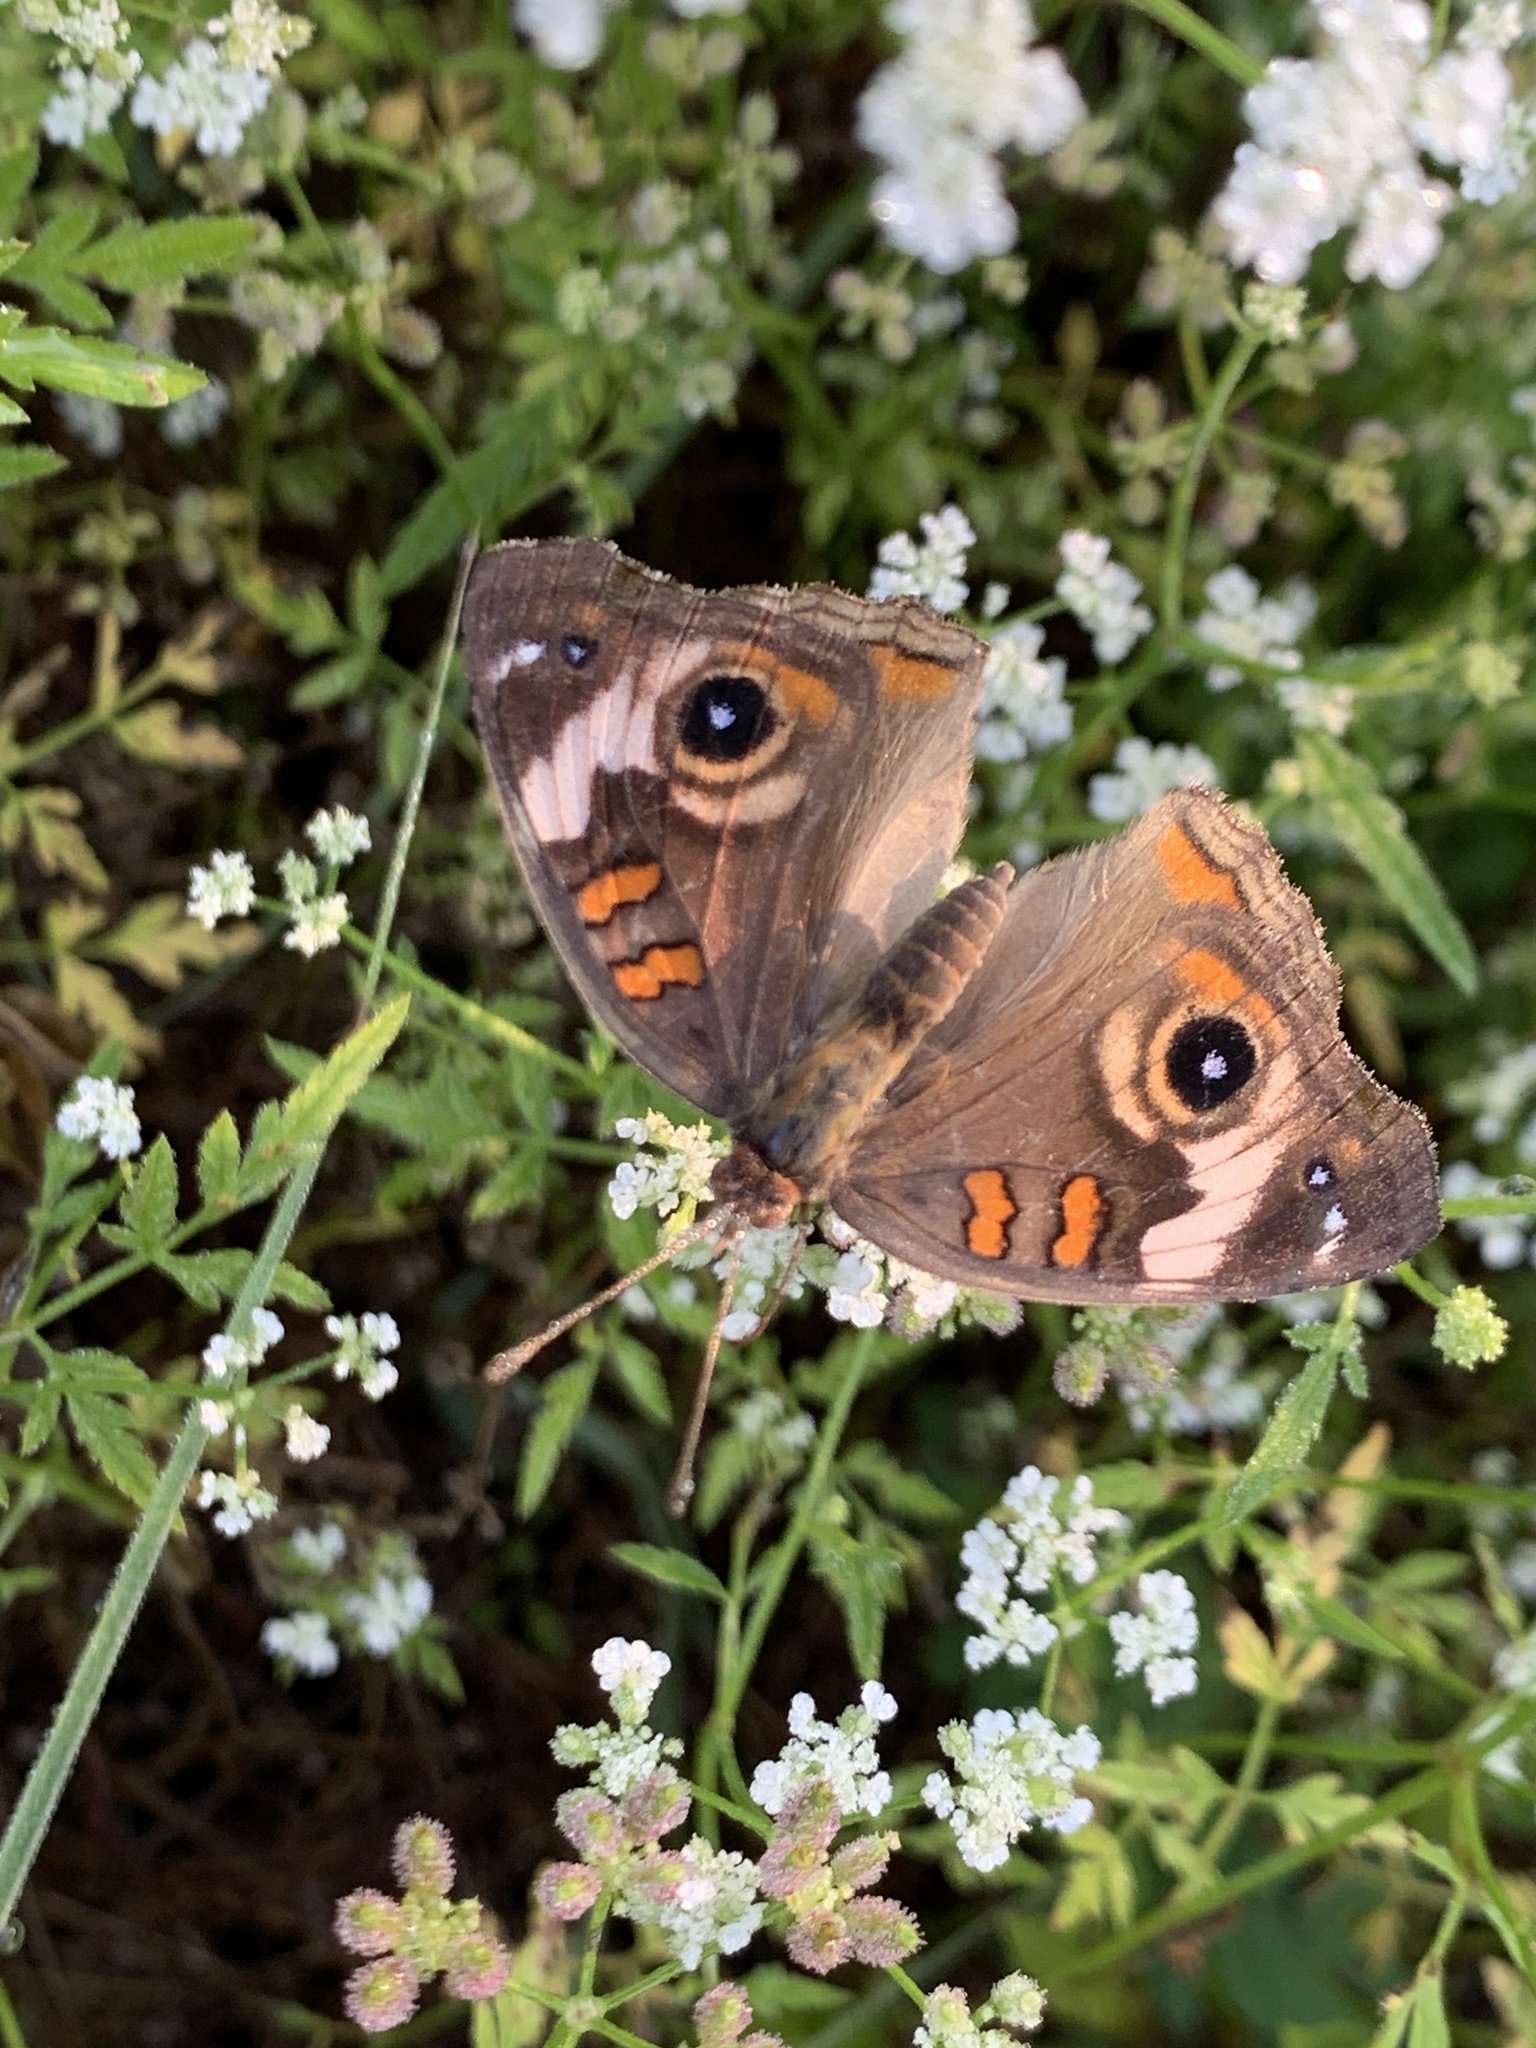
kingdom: Animalia
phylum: Arthropoda
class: Insecta
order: Lepidoptera
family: Nymphalidae
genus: Junonia
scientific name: Junonia coenia
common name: Common buckeye
